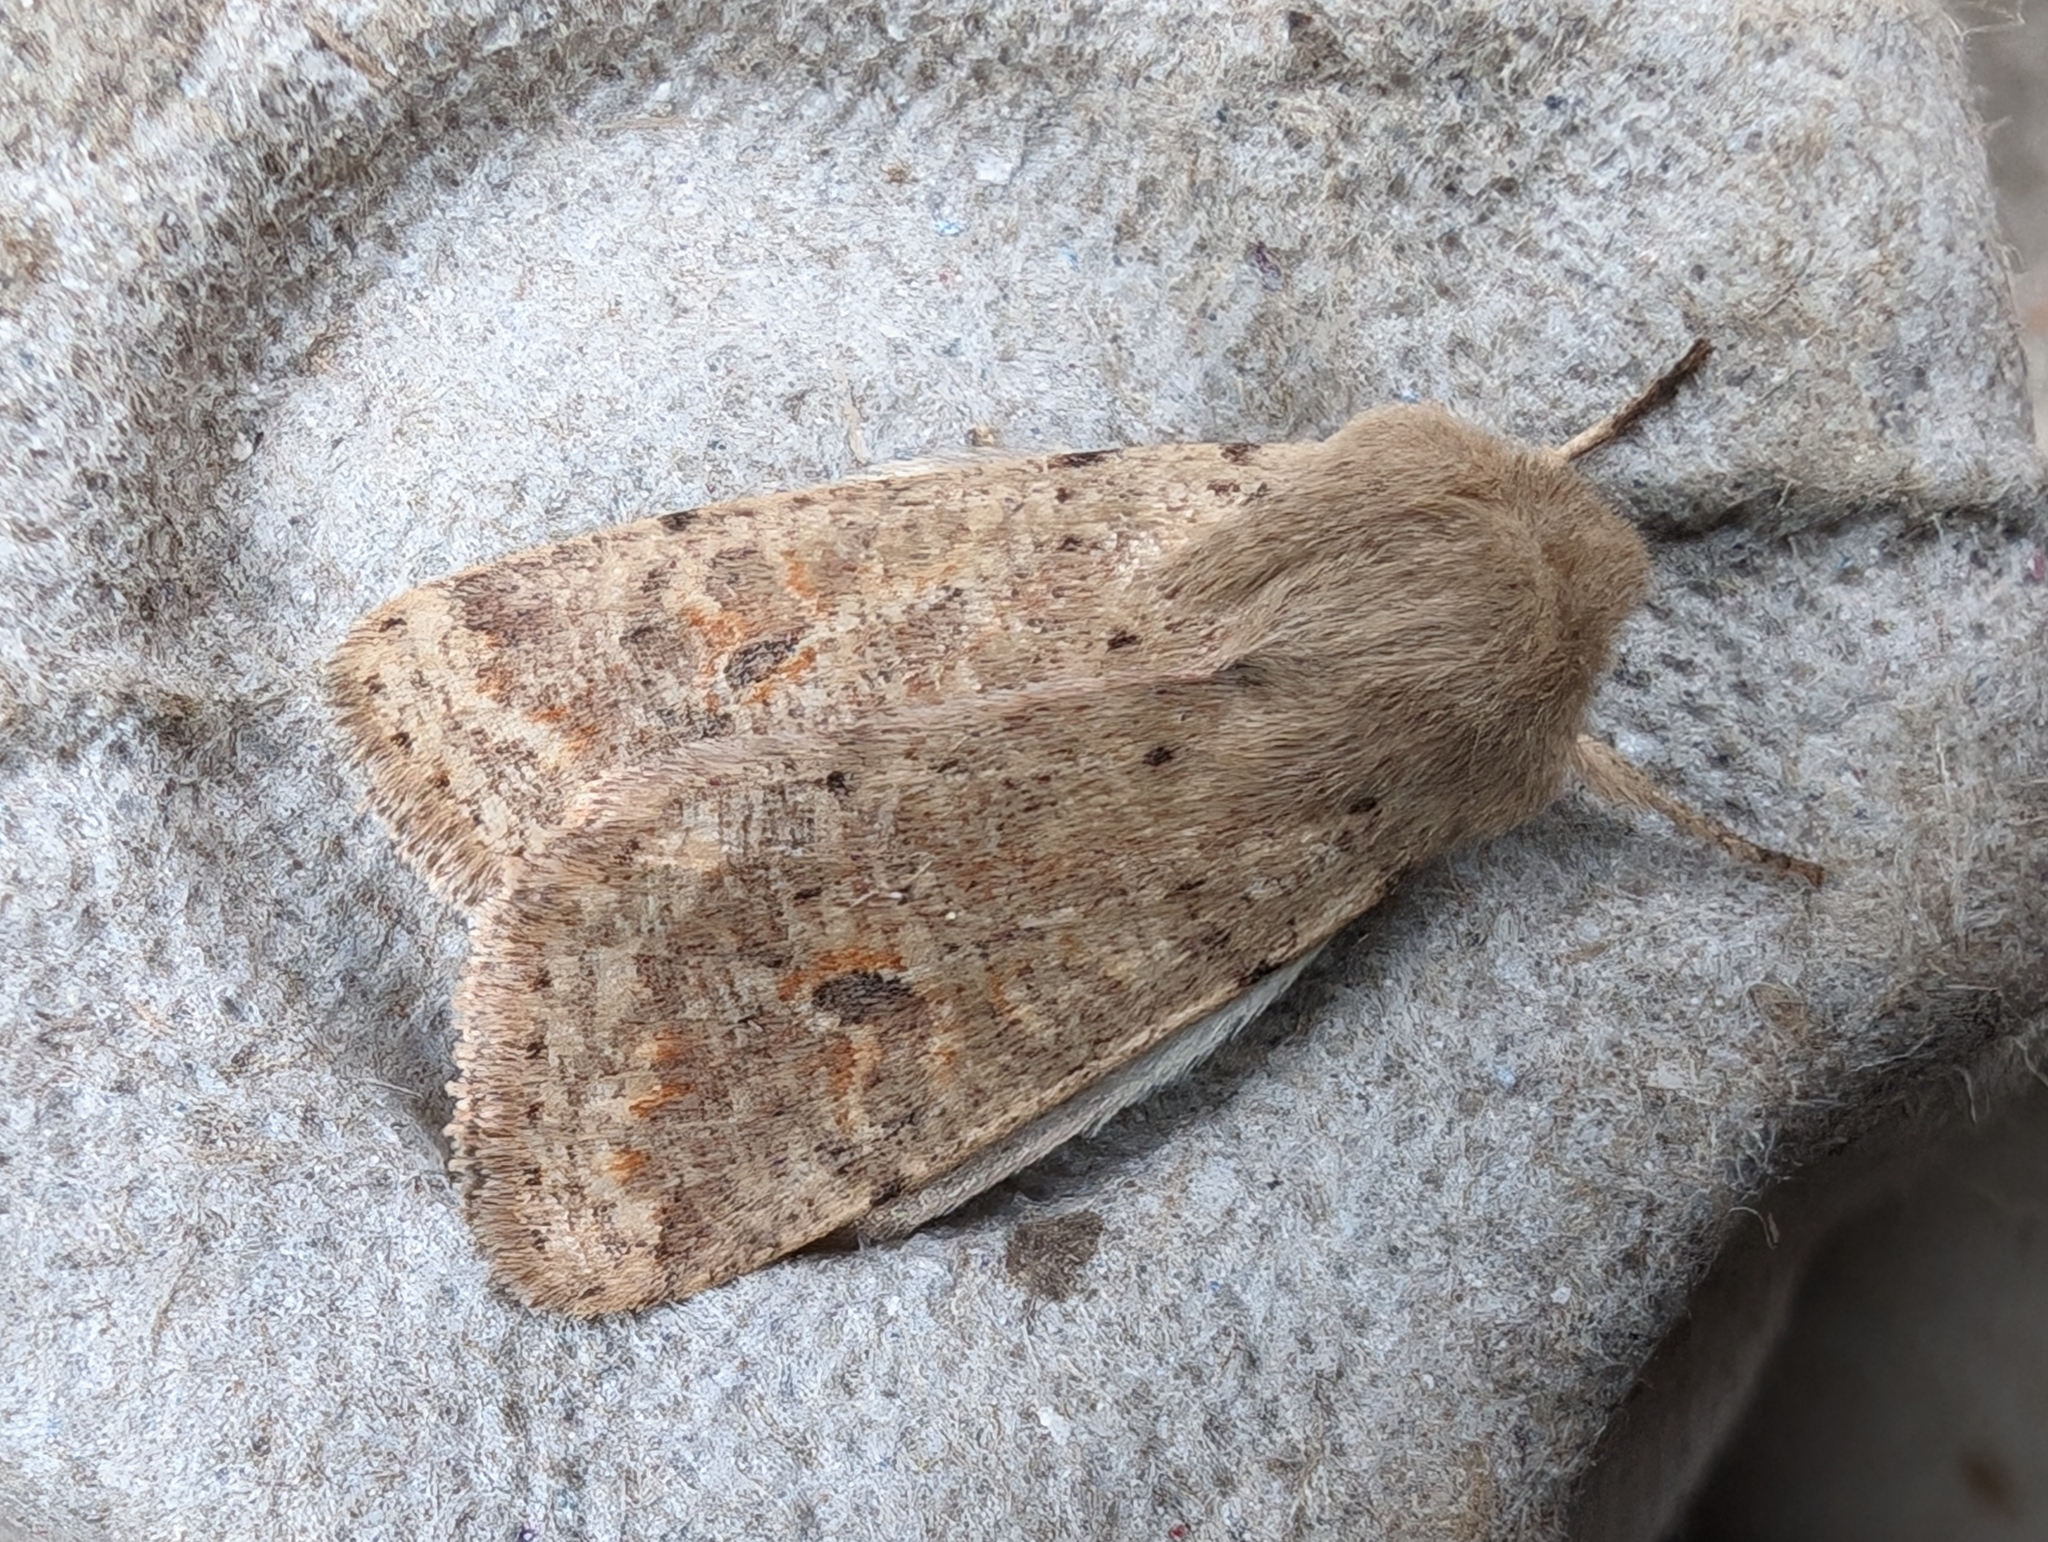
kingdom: Animalia
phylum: Arthropoda
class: Insecta
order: Lepidoptera
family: Noctuidae
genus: Orthosia
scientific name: Orthosia cruda
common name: Small quaker
